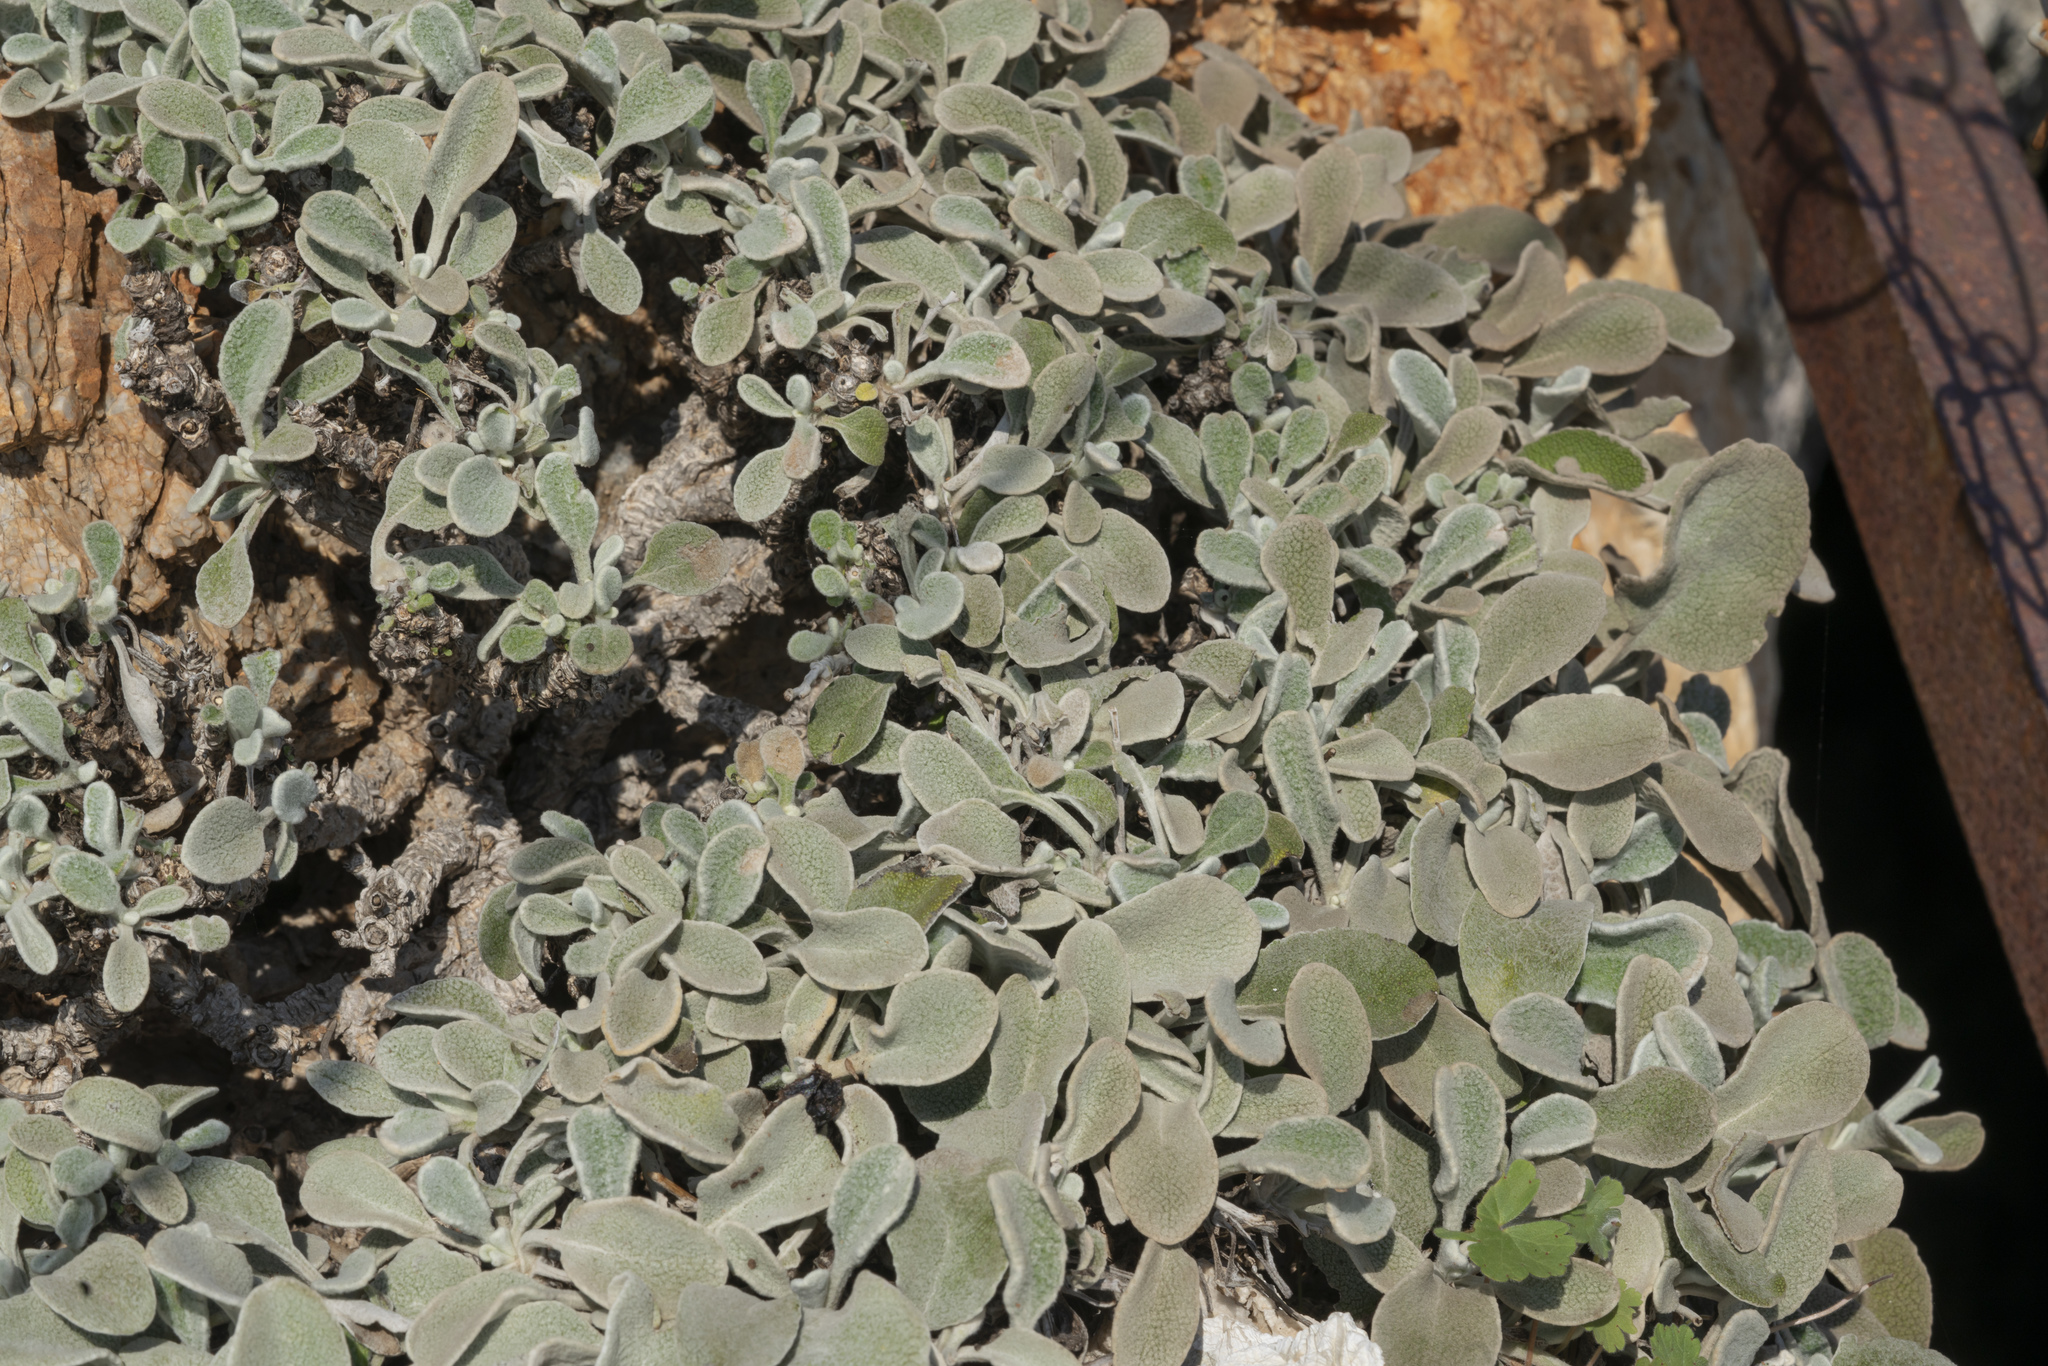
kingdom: Plantae
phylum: Tracheophyta
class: Magnoliopsida
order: Asterales
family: Asteraceae
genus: Pentanema
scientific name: Pentanema verbascifolium
